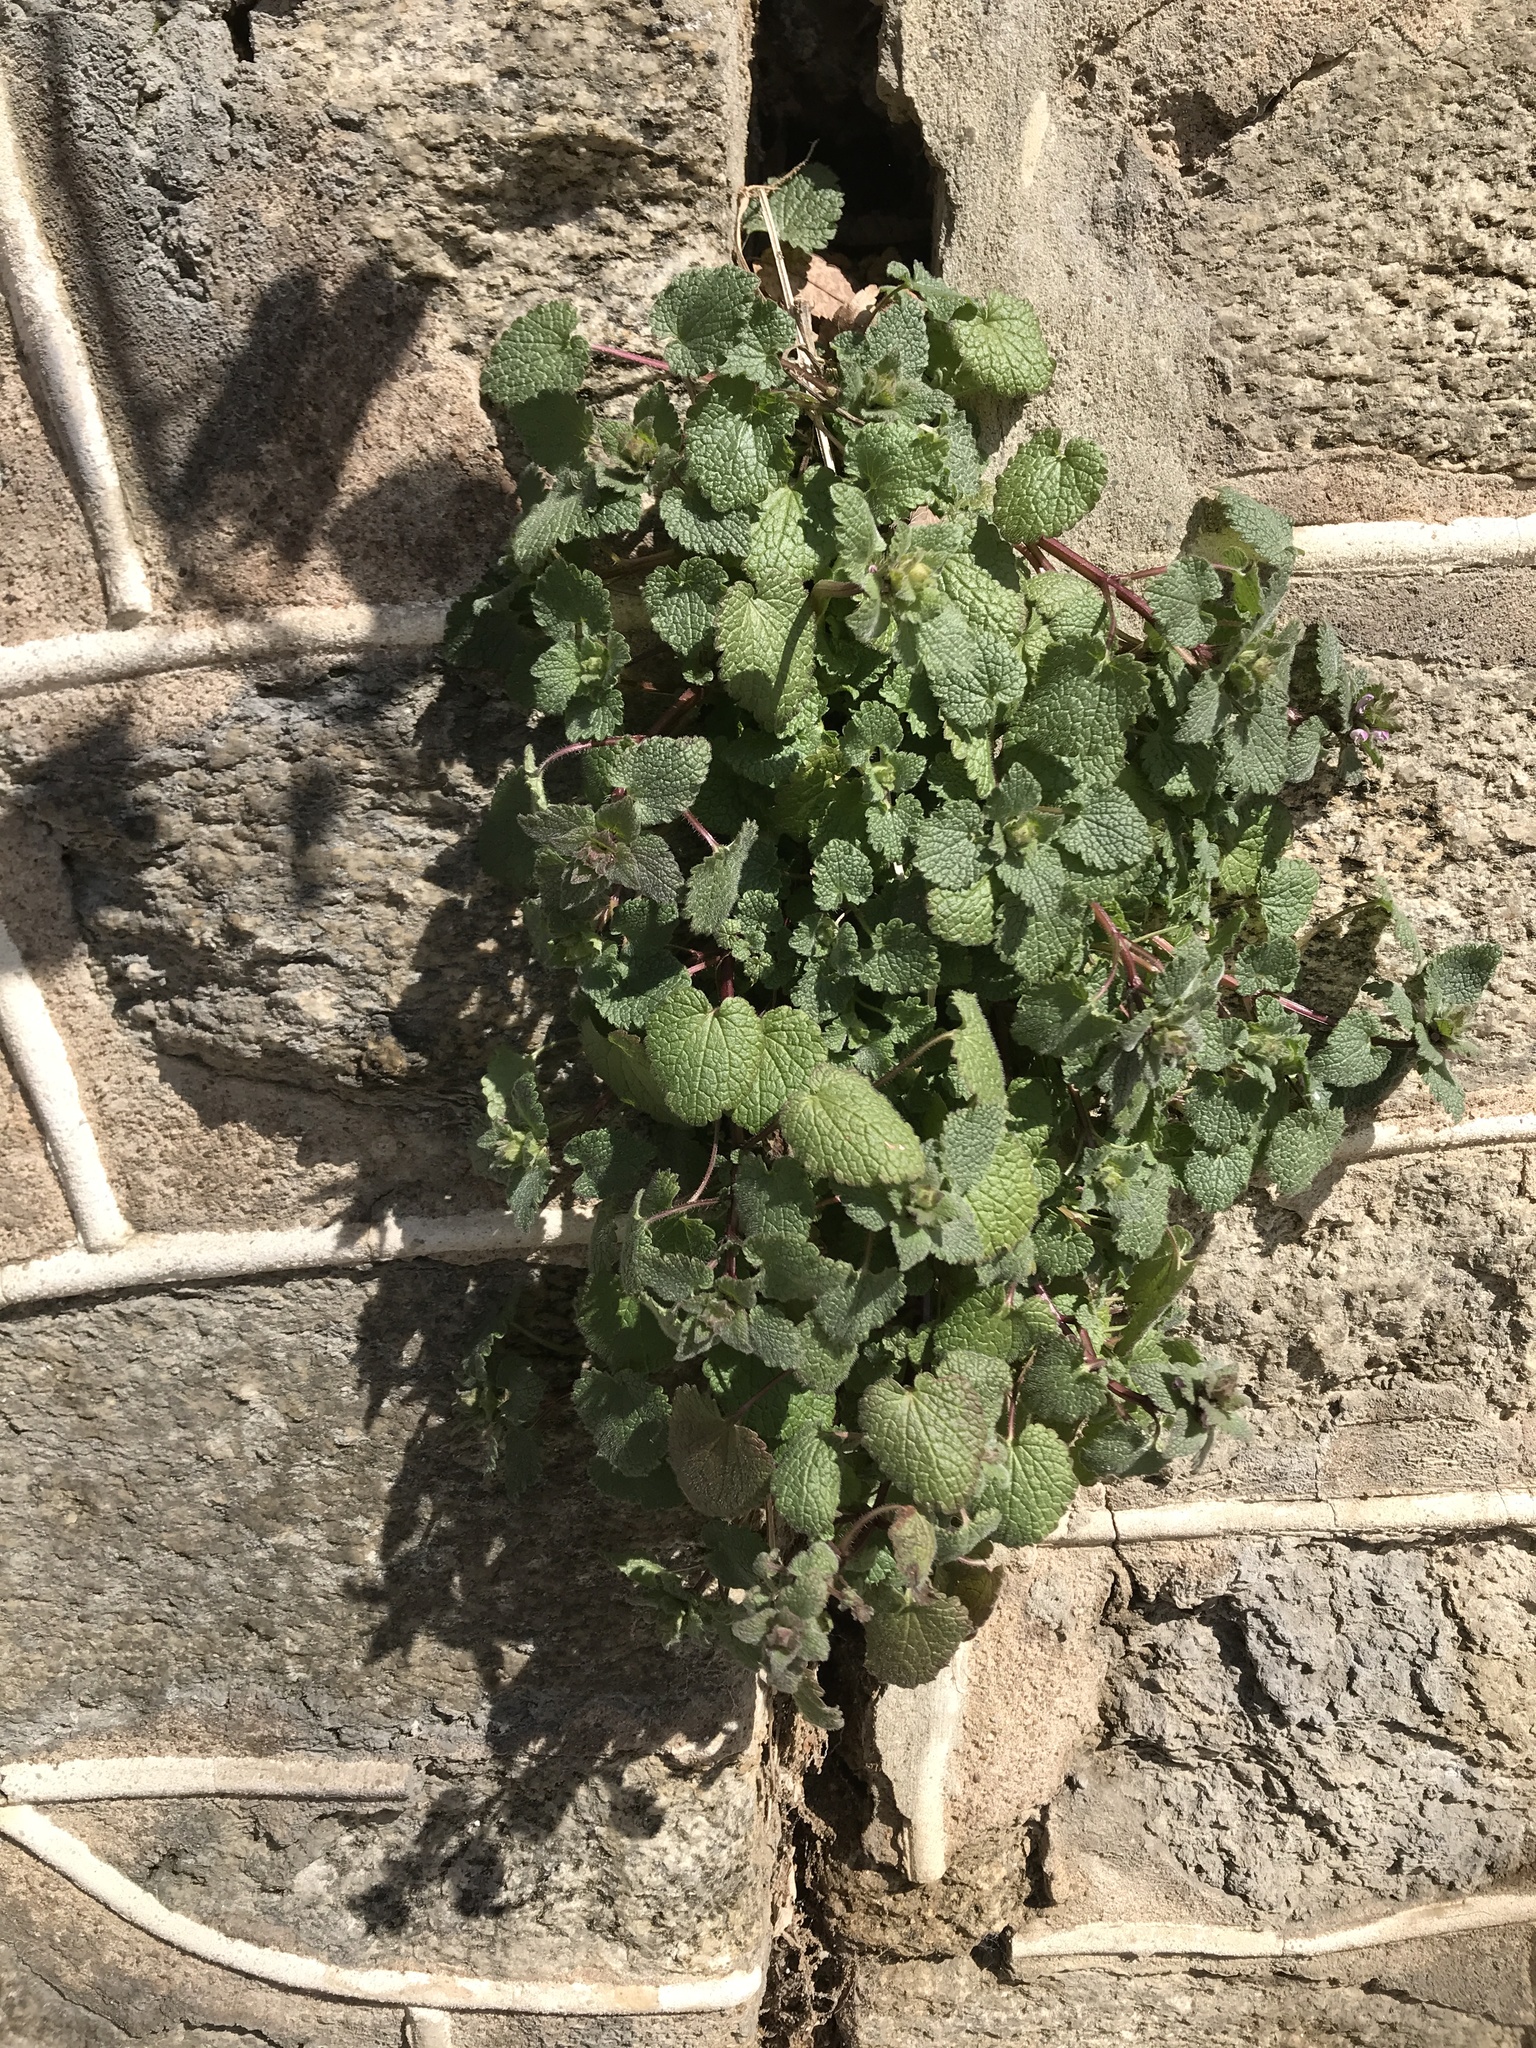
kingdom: Plantae
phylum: Tracheophyta
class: Magnoliopsida
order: Lamiales
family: Lamiaceae
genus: Lamium
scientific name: Lamium purpureum
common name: Red dead-nettle
